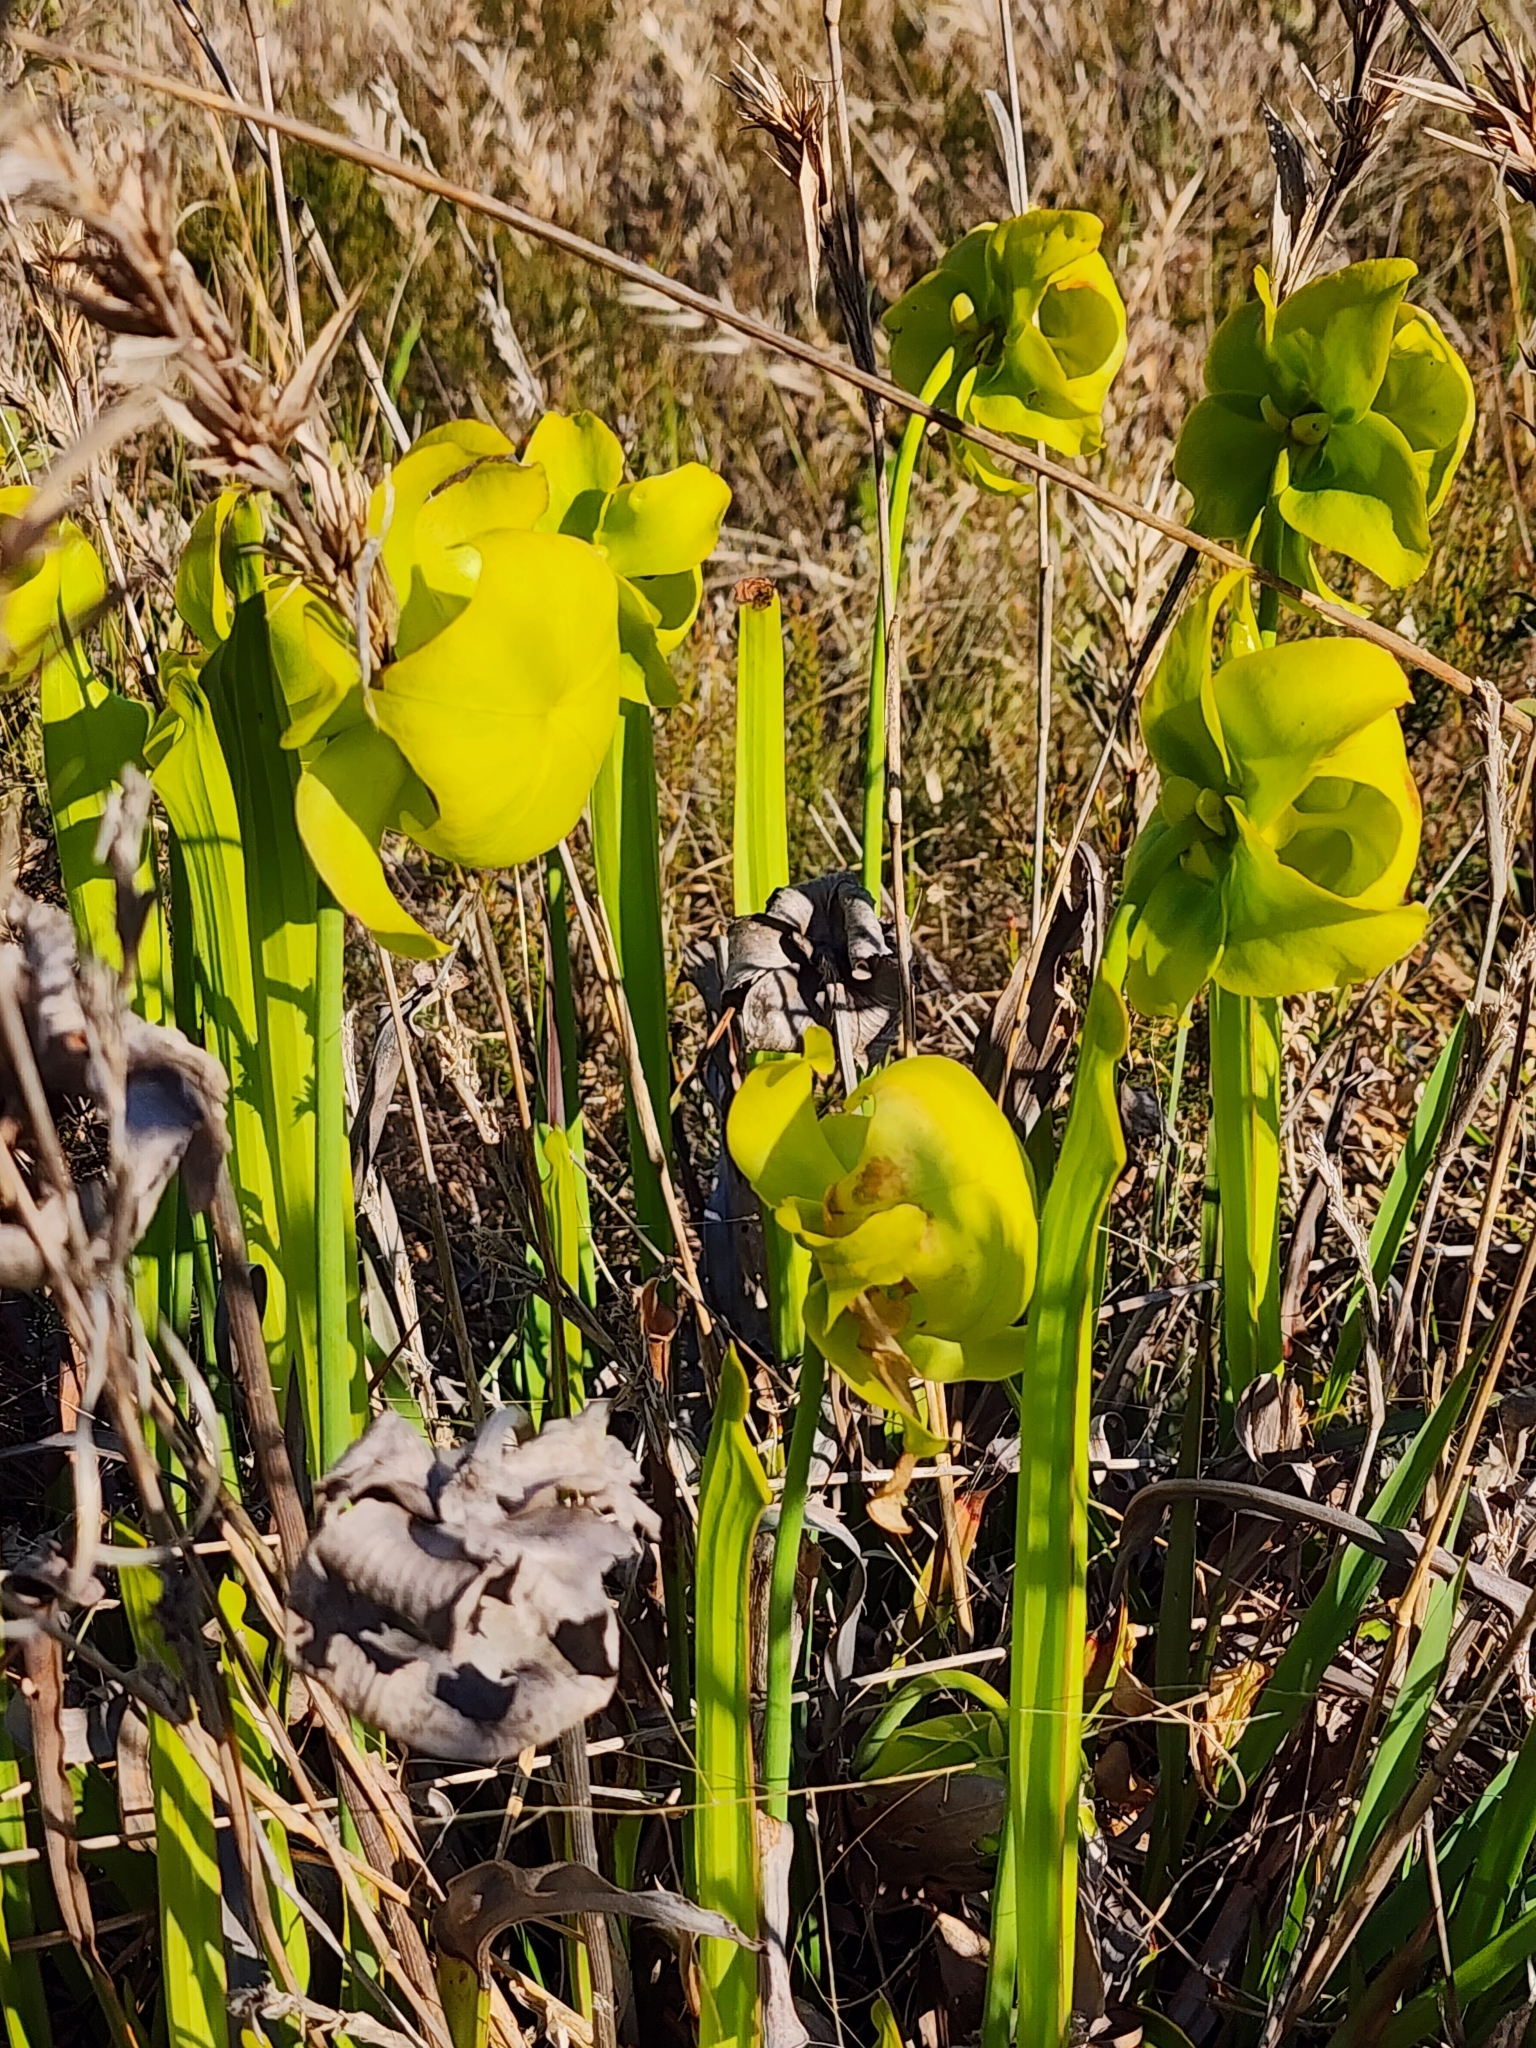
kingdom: Plantae
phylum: Tracheophyta
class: Magnoliopsida
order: Ericales
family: Sarraceniaceae
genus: Sarracenia
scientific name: Sarracenia flava
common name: Trumpets
